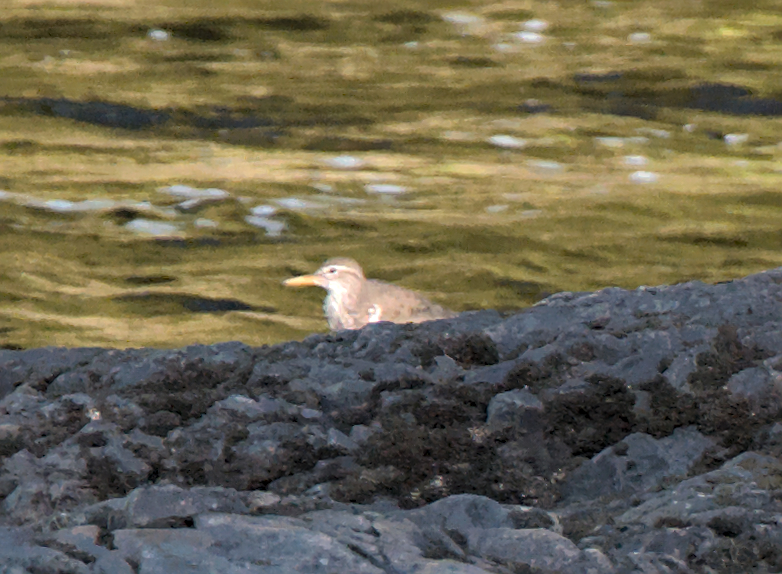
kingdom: Animalia
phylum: Chordata
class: Aves
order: Charadriiformes
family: Scolopacidae
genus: Actitis
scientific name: Actitis macularius
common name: Spotted sandpiper
